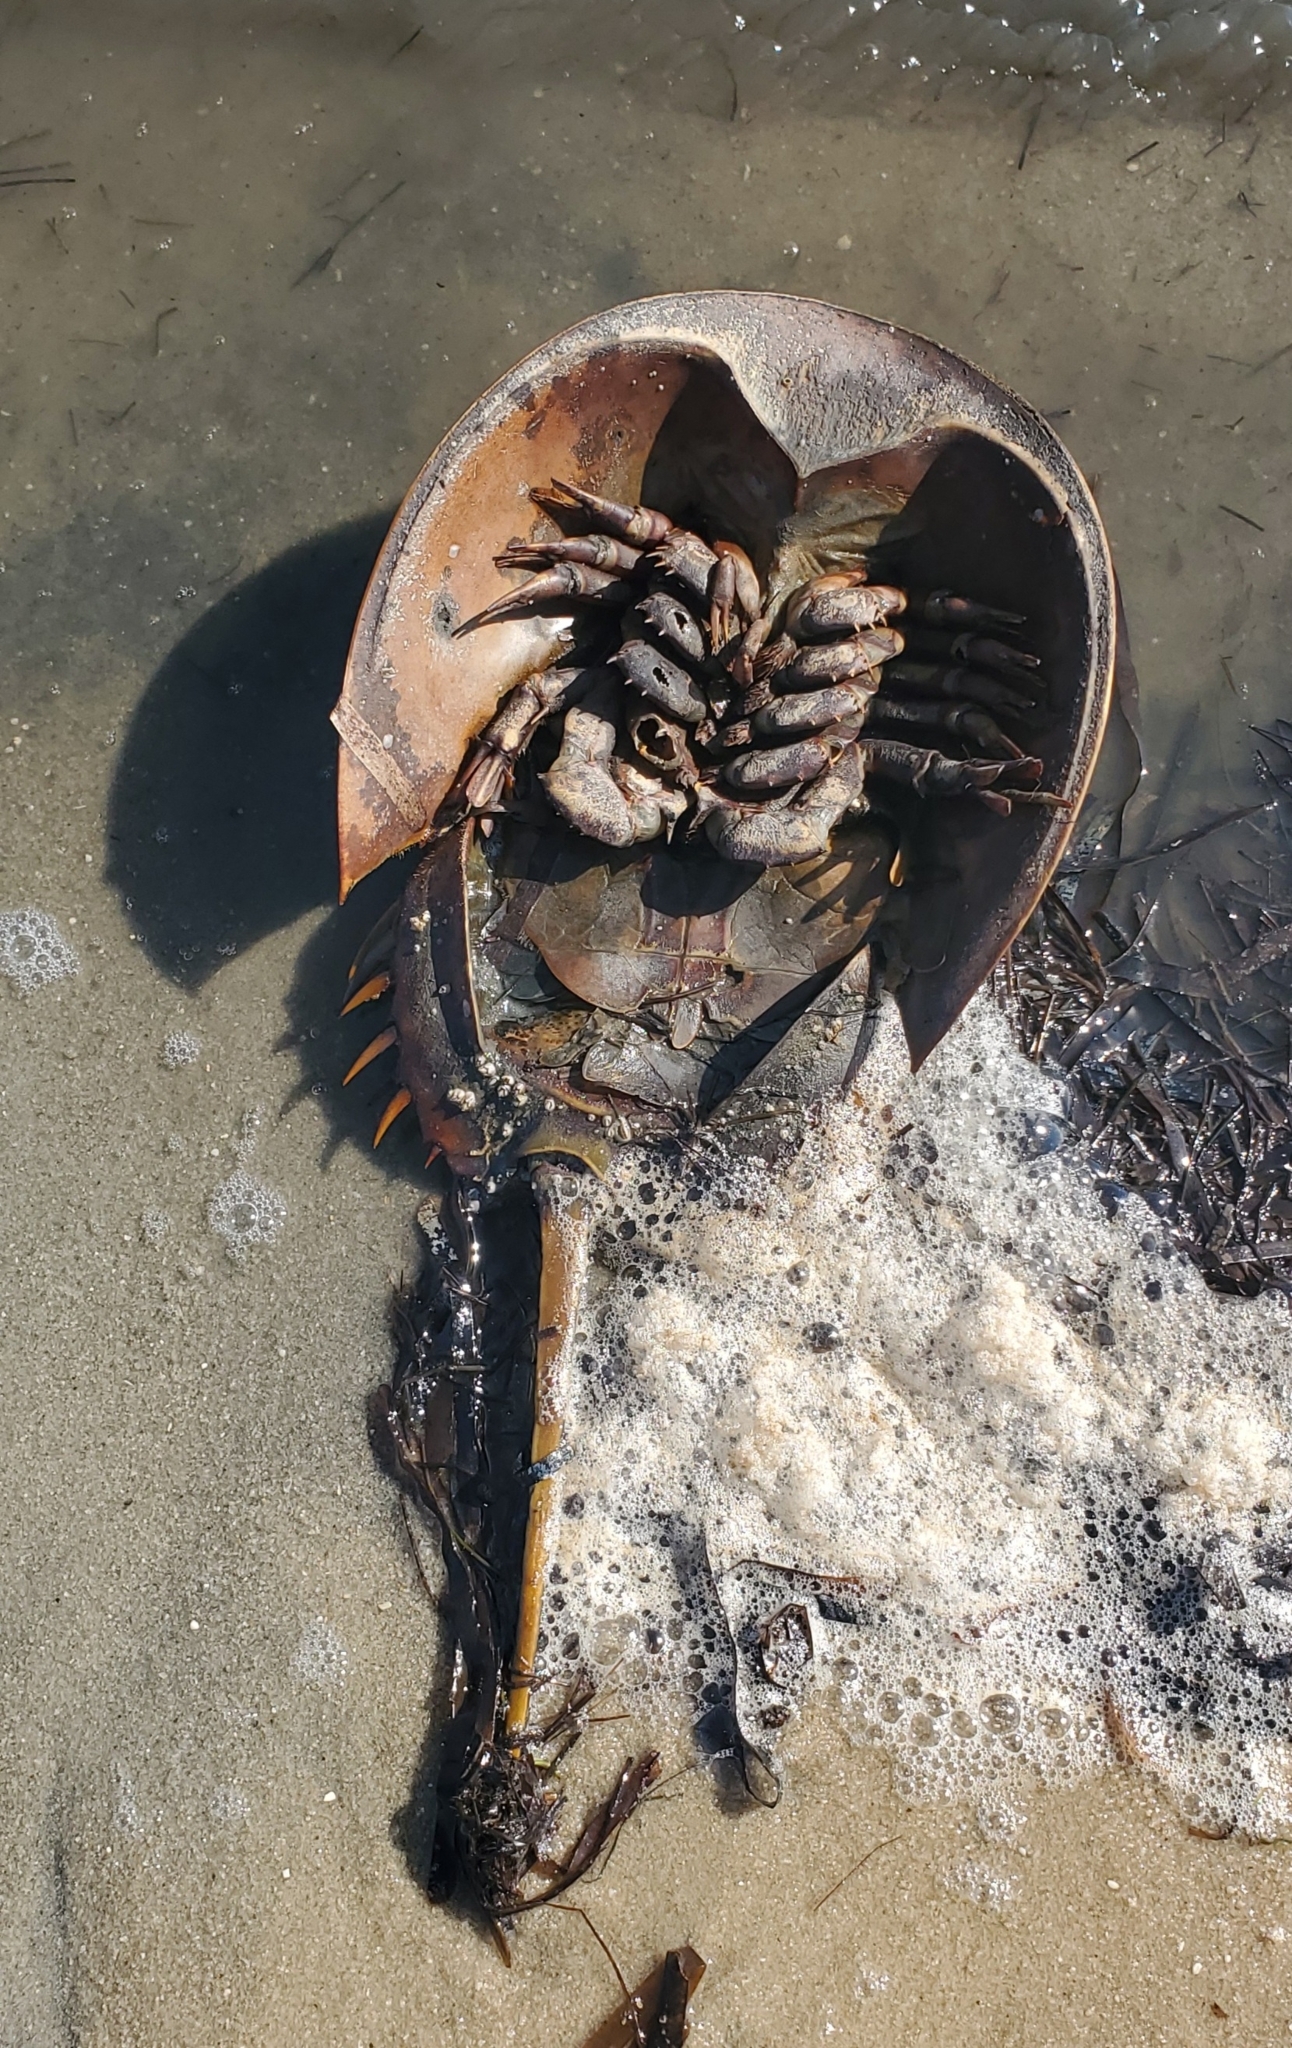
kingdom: Animalia
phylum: Arthropoda
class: Merostomata
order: Xiphosurida
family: Limulidae
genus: Limulus
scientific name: Limulus polyphemus
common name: Horseshoe crab
